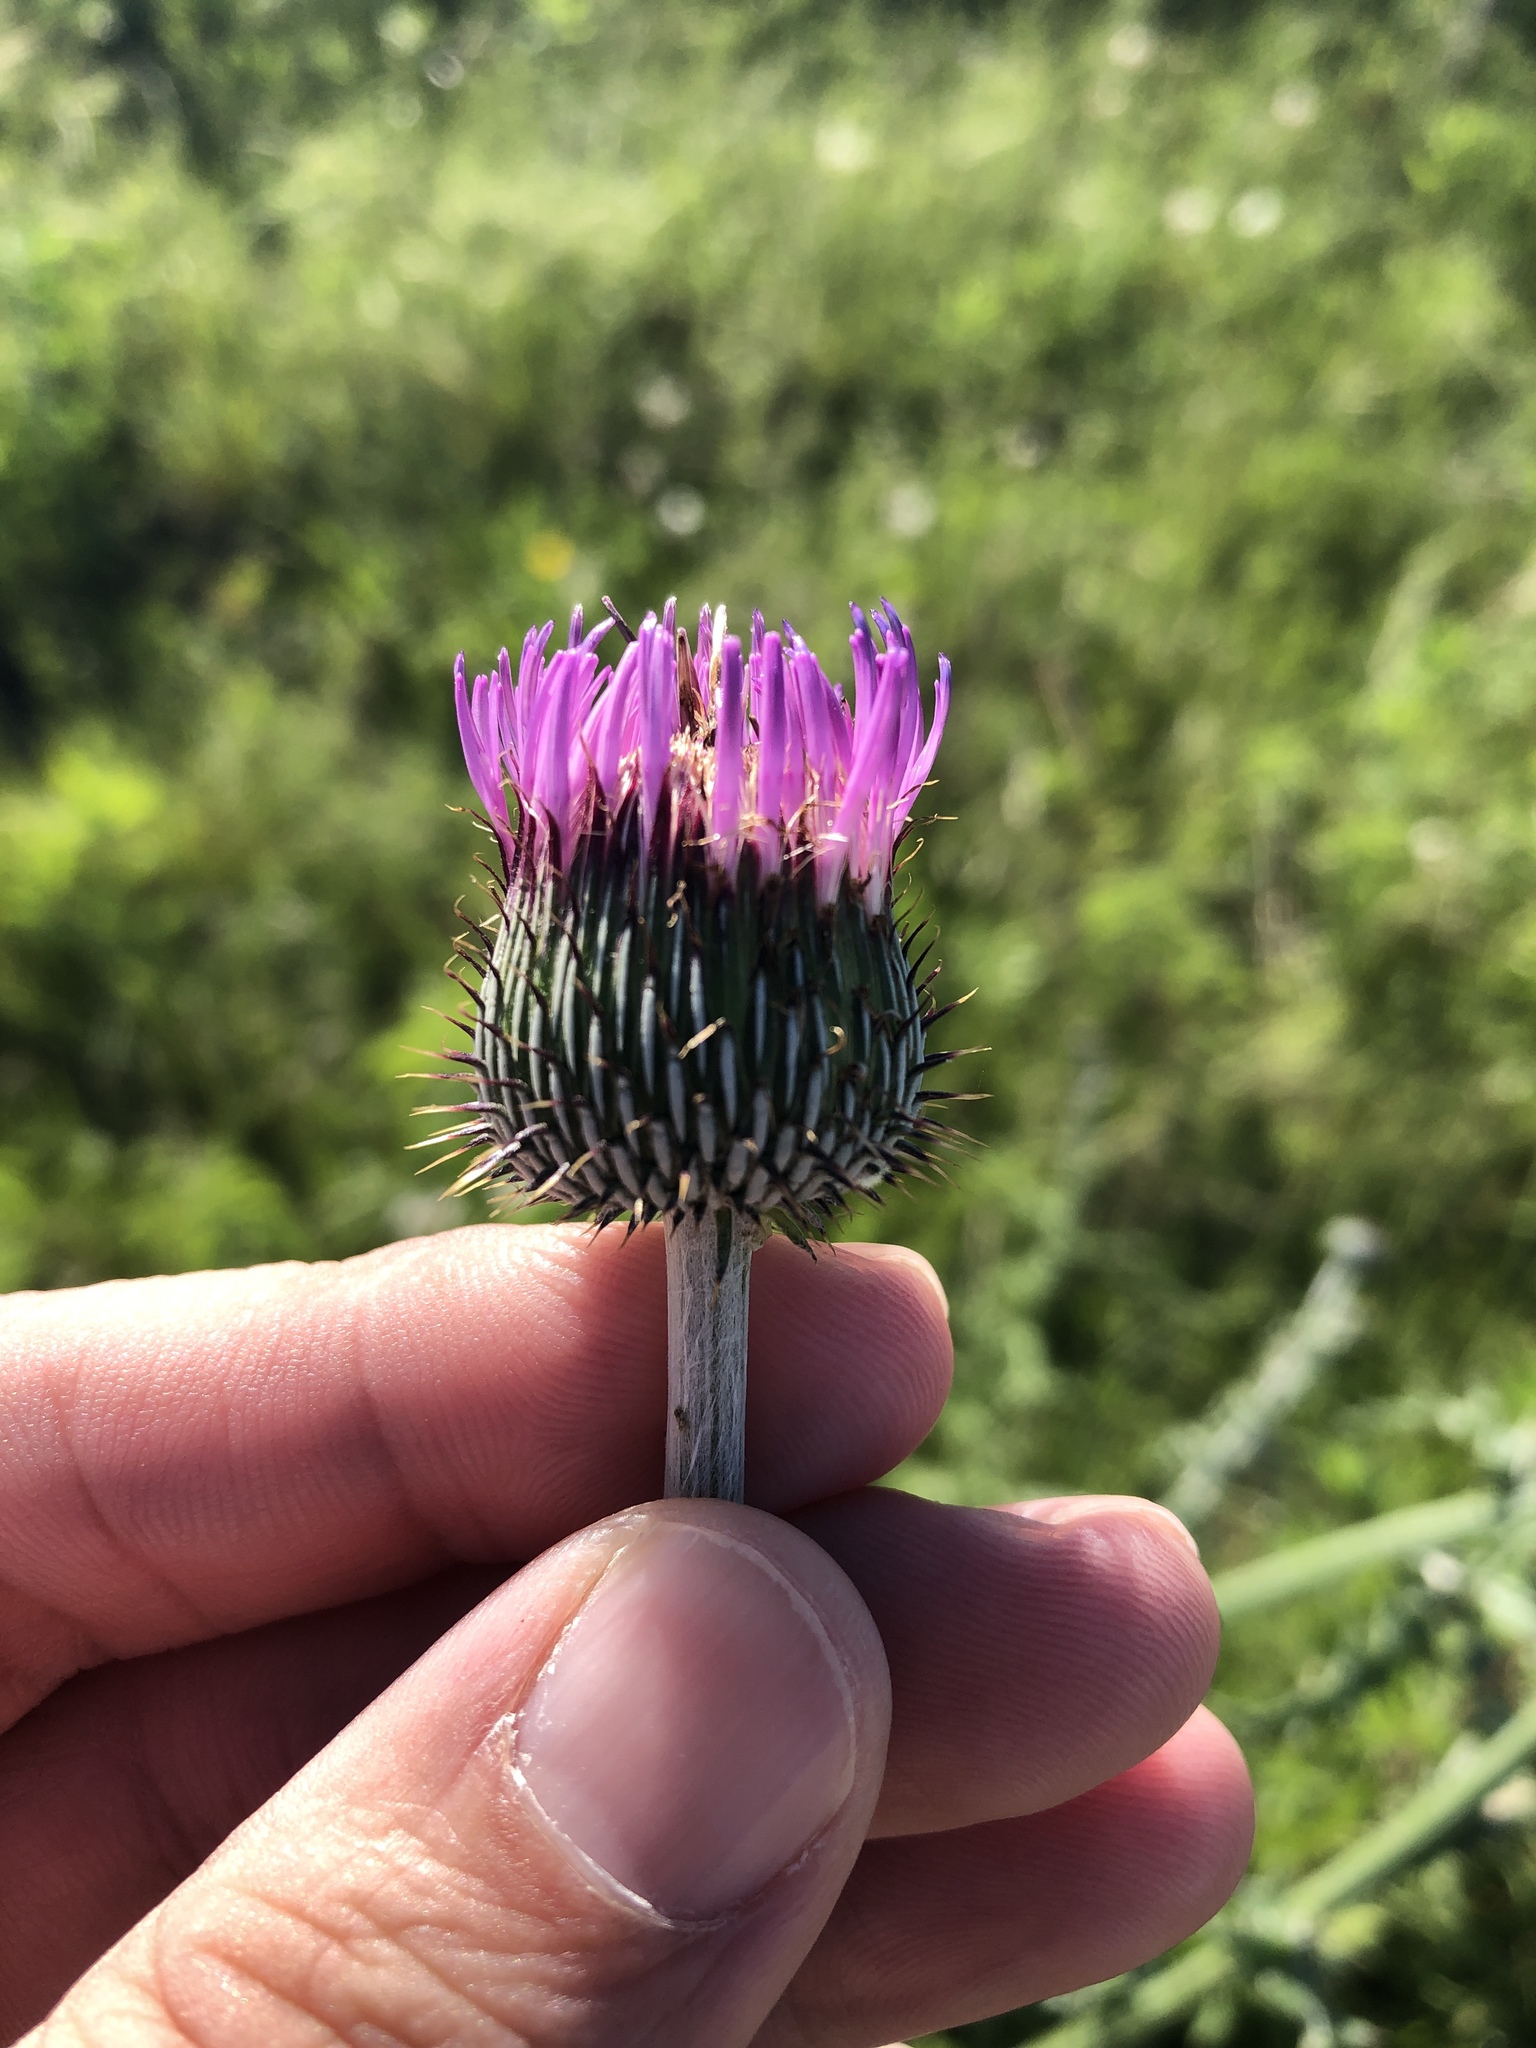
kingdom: Plantae
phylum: Tracheophyta
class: Magnoliopsida
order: Asterales
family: Asteraceae
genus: Cirsium
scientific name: Cirsium texanum
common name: Texas purple thistle
